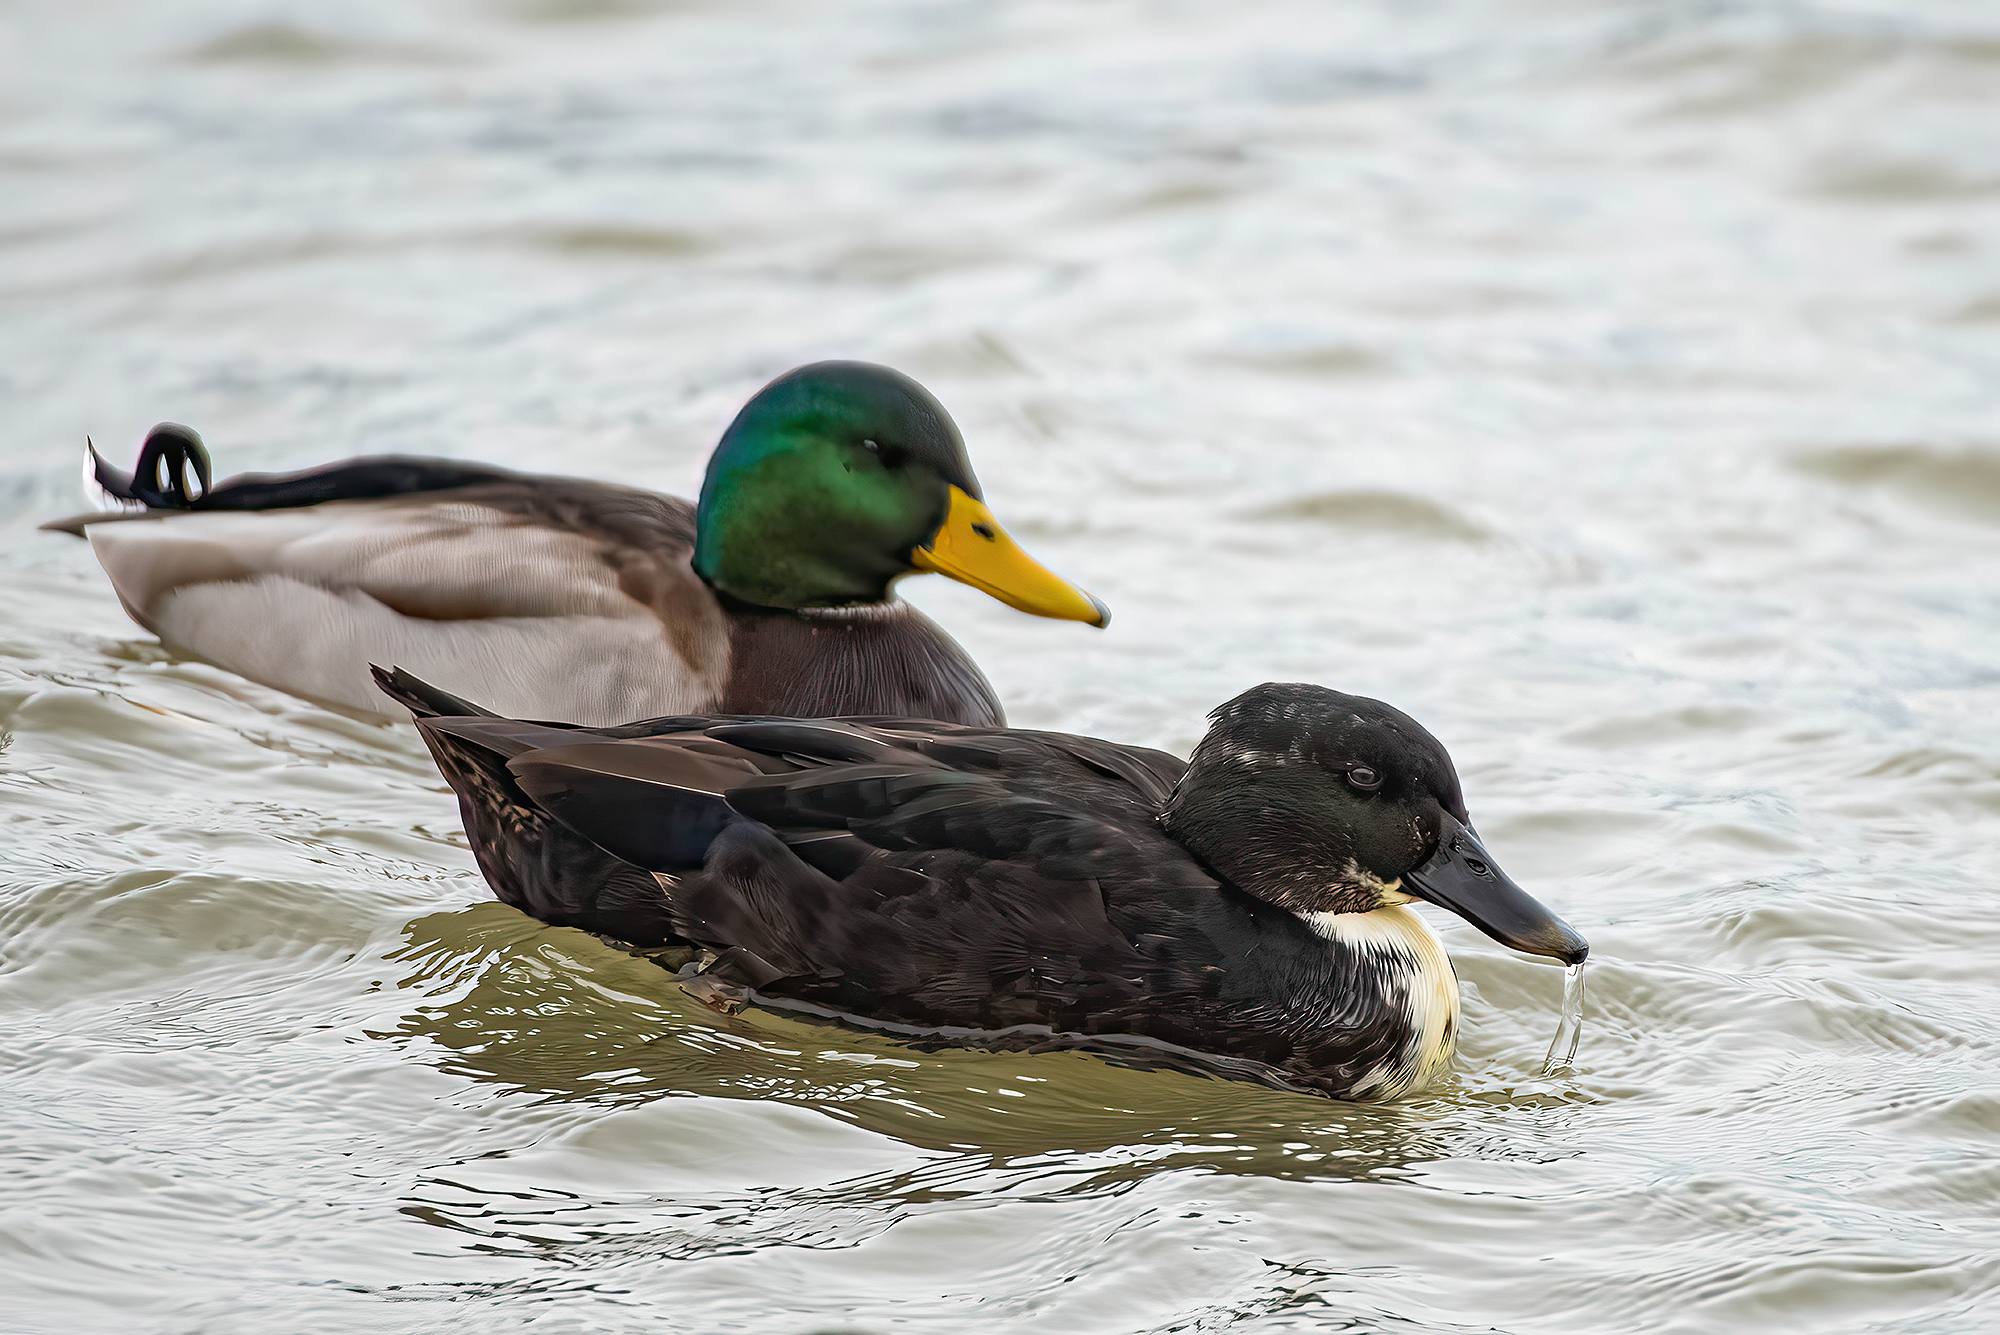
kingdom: Animalia
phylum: Chordata
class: Aves
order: Anseriformes
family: Anatidae
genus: Anas
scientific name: Anas platyrhynchos
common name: Mallard
